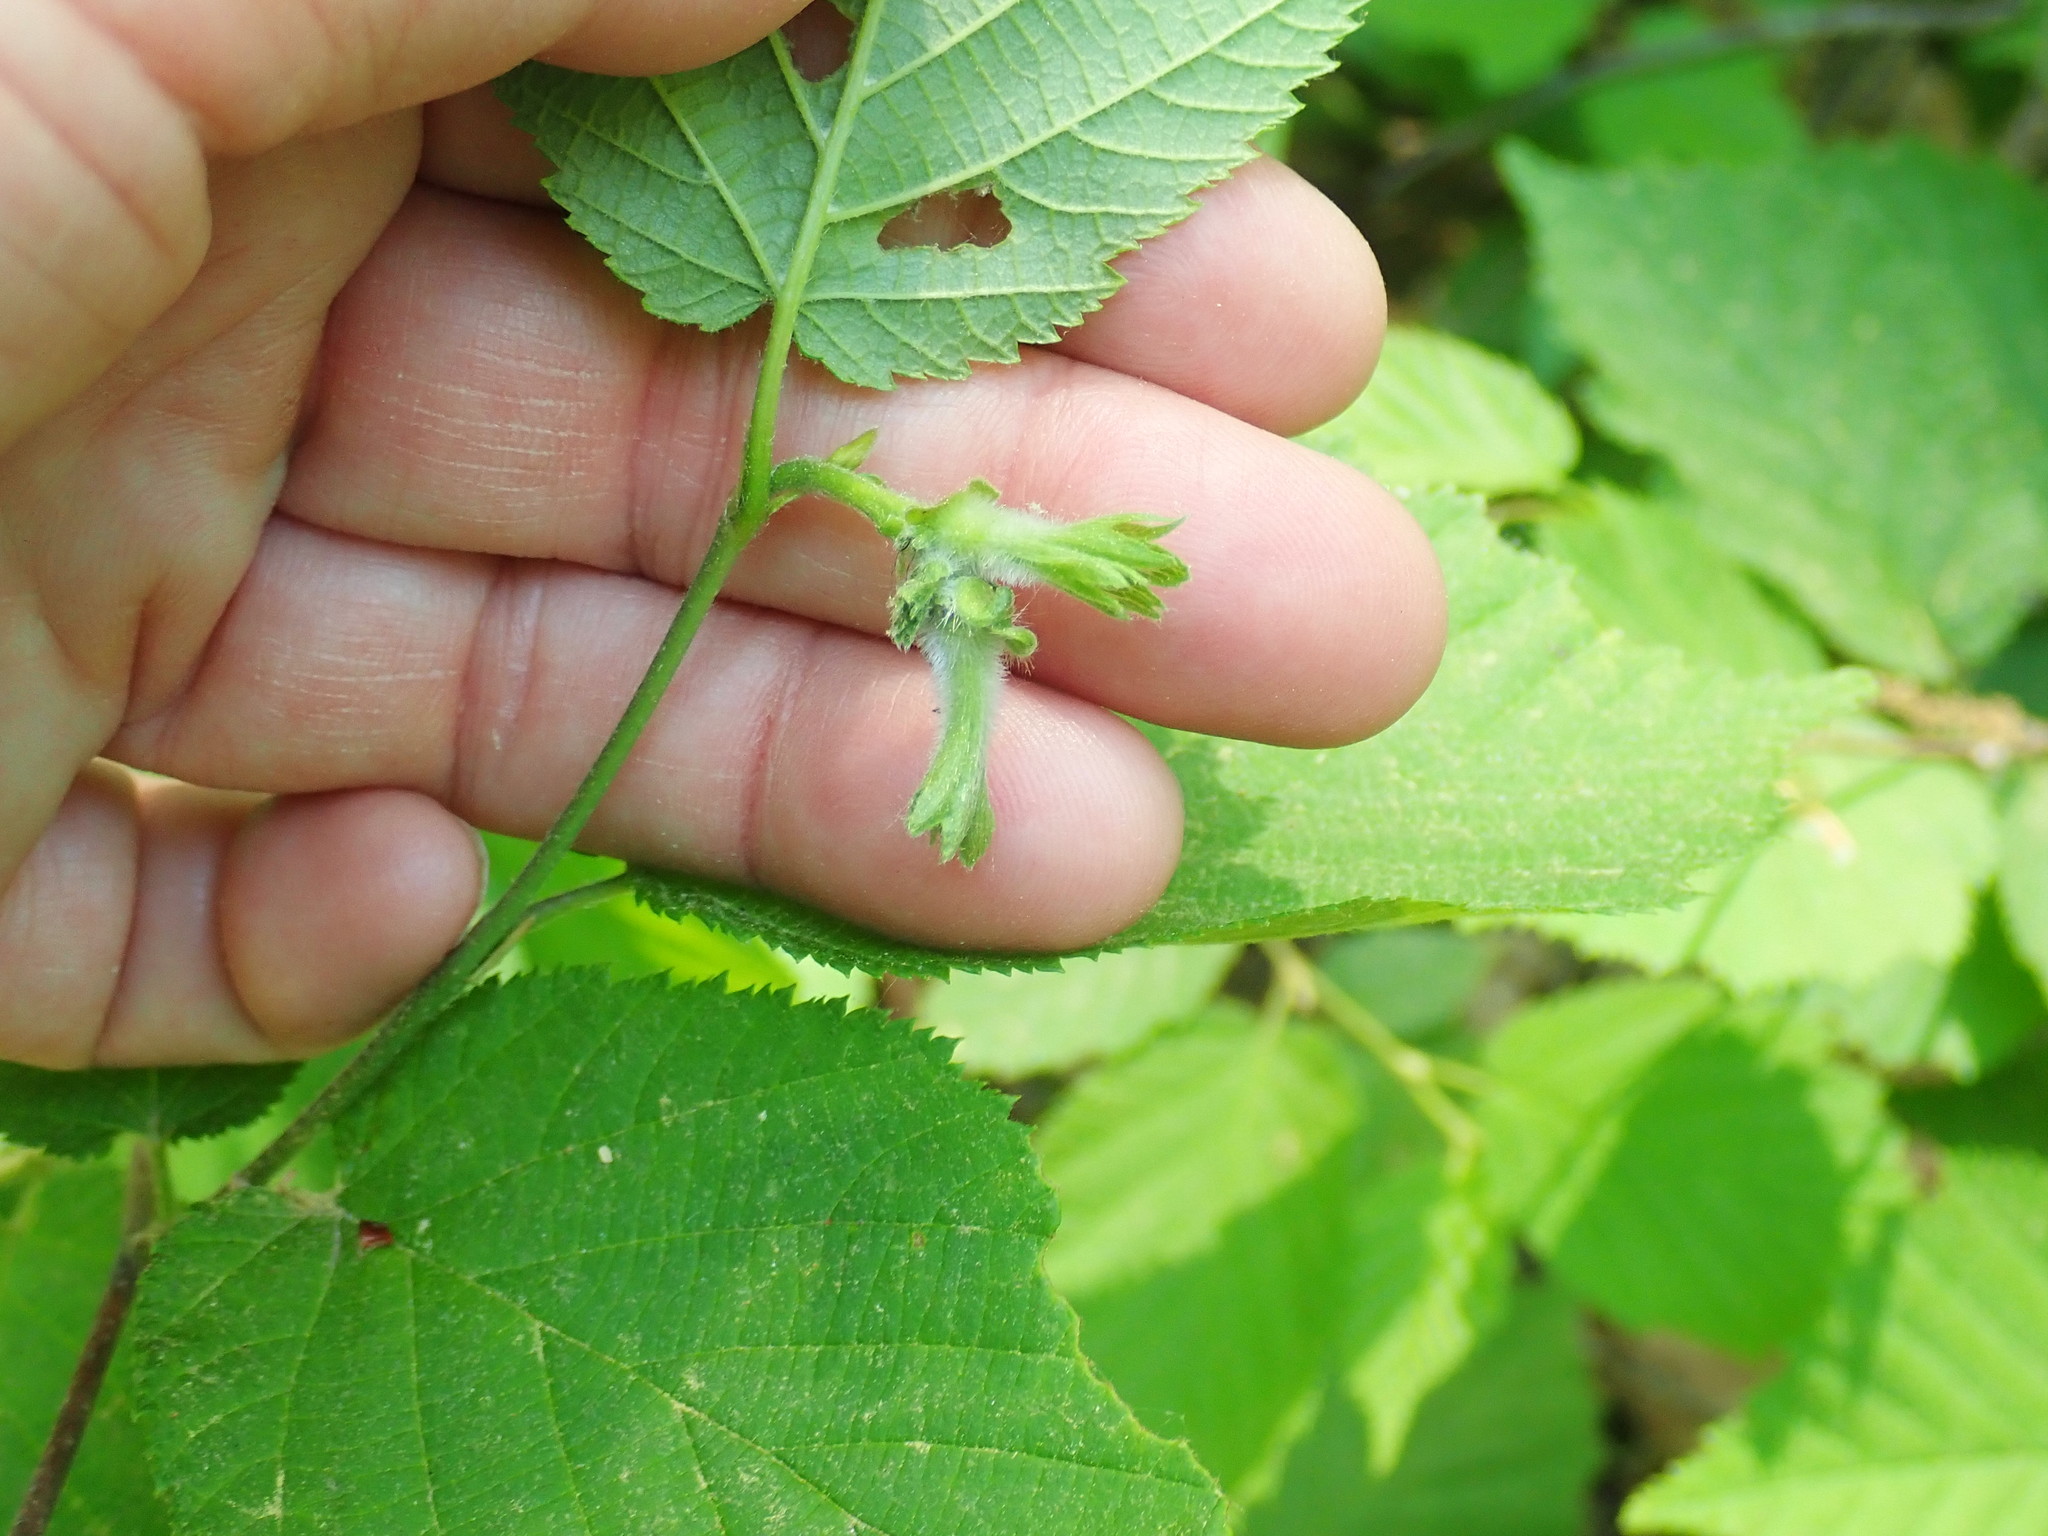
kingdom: Plantae
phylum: Tracheophyta
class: Magnoliopsida
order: Fagales
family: Betulaceae
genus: Corylus
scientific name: Corylus cornuta
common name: Beaked hazel
